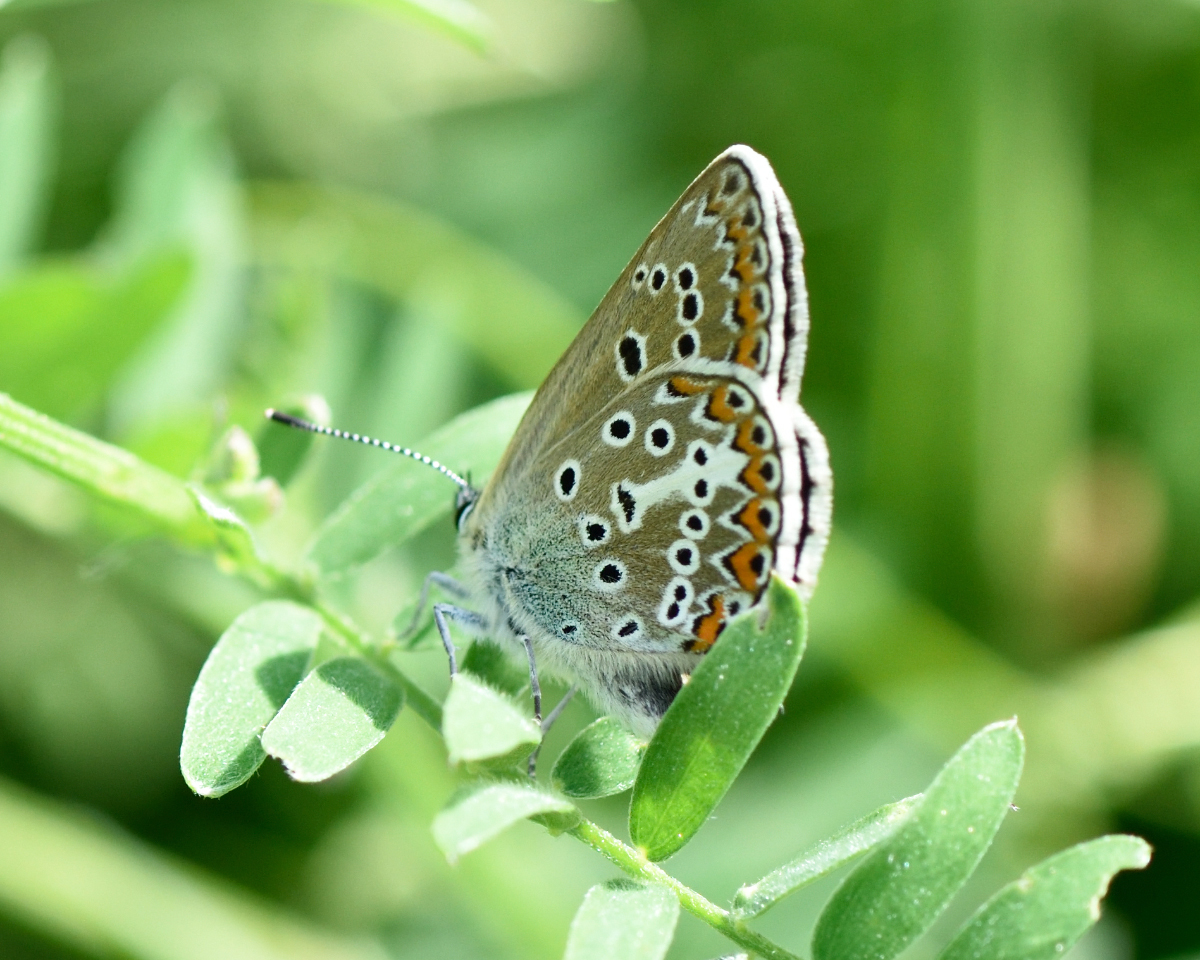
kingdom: Animalia
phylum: Arthropoda
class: Insecta
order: Lepidoptera
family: Lycaenidae
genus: Eumedonia
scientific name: Eumedonia eumedon
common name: Geranium argus
